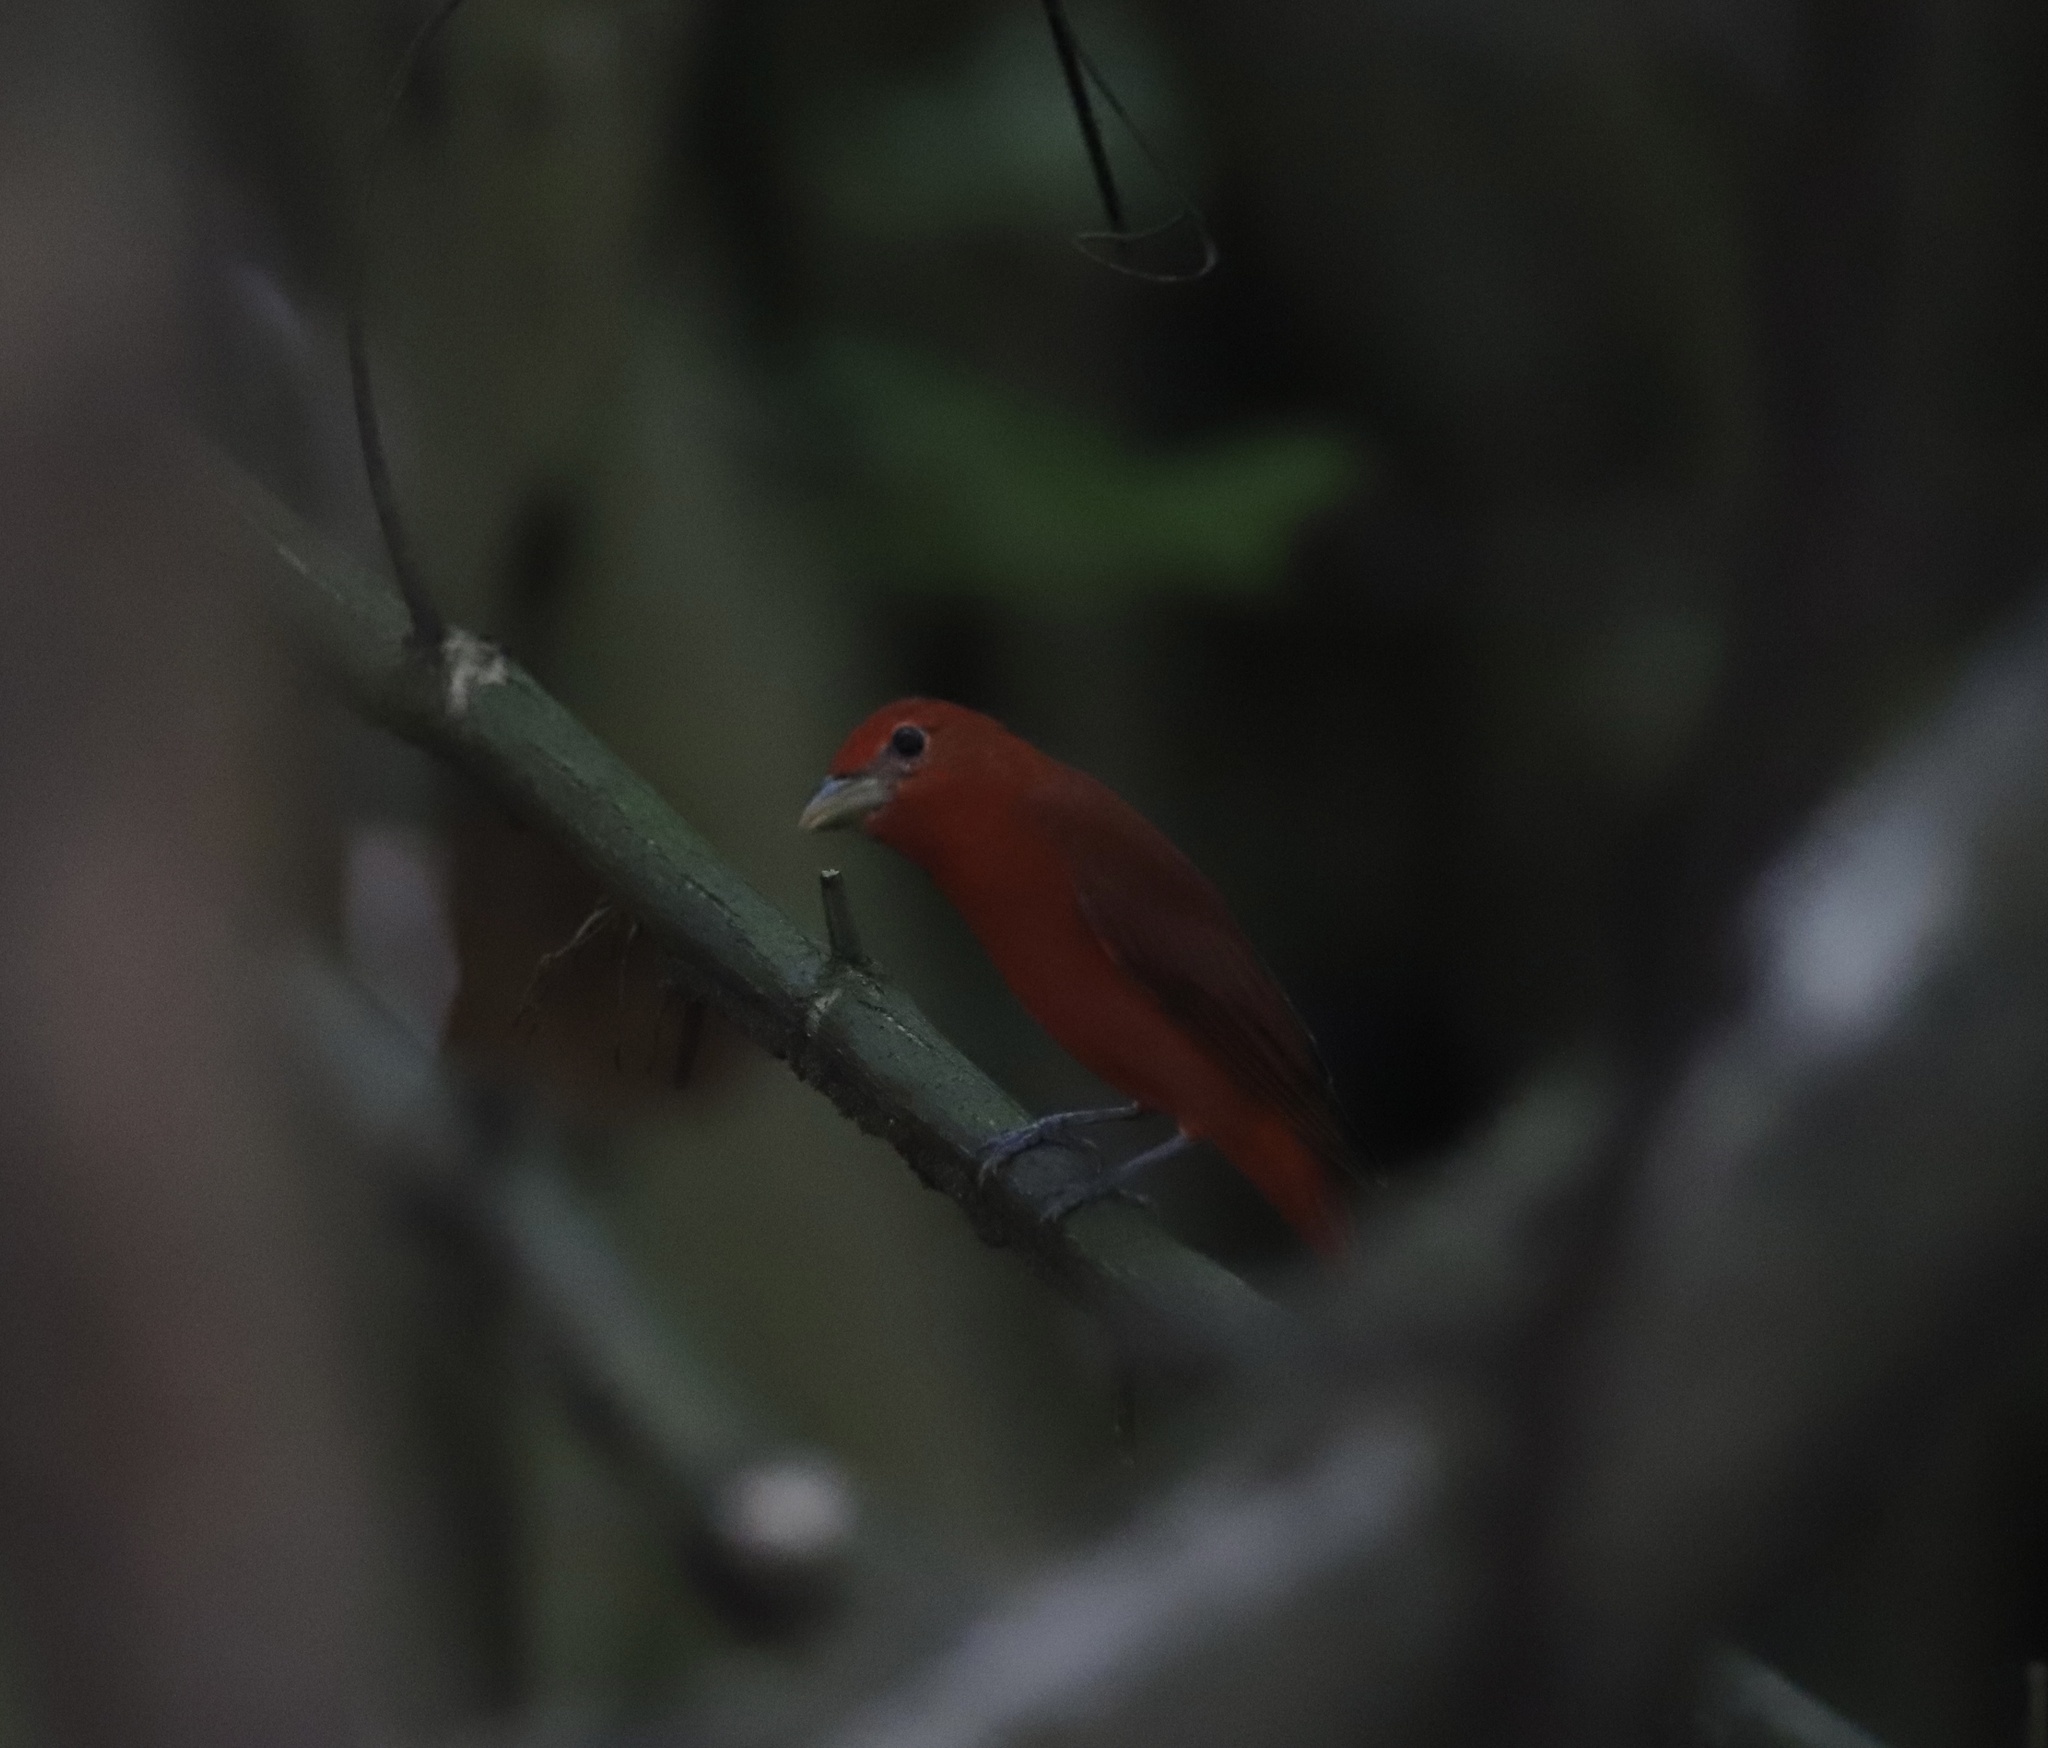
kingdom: Animalia
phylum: Chordata
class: Aves
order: Passeriformes
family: Cardinalidae
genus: Piranga
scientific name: Piranga rubra
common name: Summer tanager
